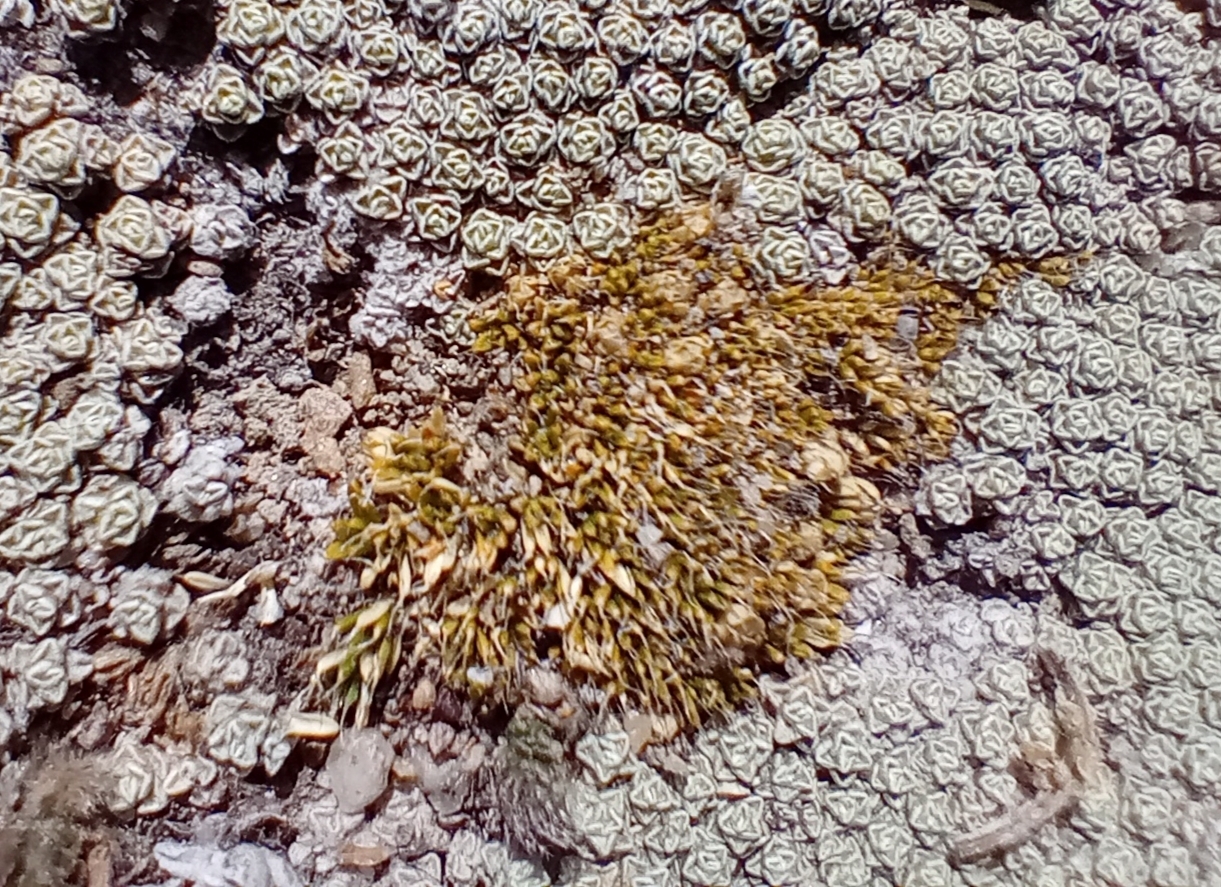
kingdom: Plantae
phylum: Tracheophyta
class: Magnoliopsida
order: Caryophyllales
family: Caryophyllaceae
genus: Colobanthus
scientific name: Colobanthus brevisepalus
